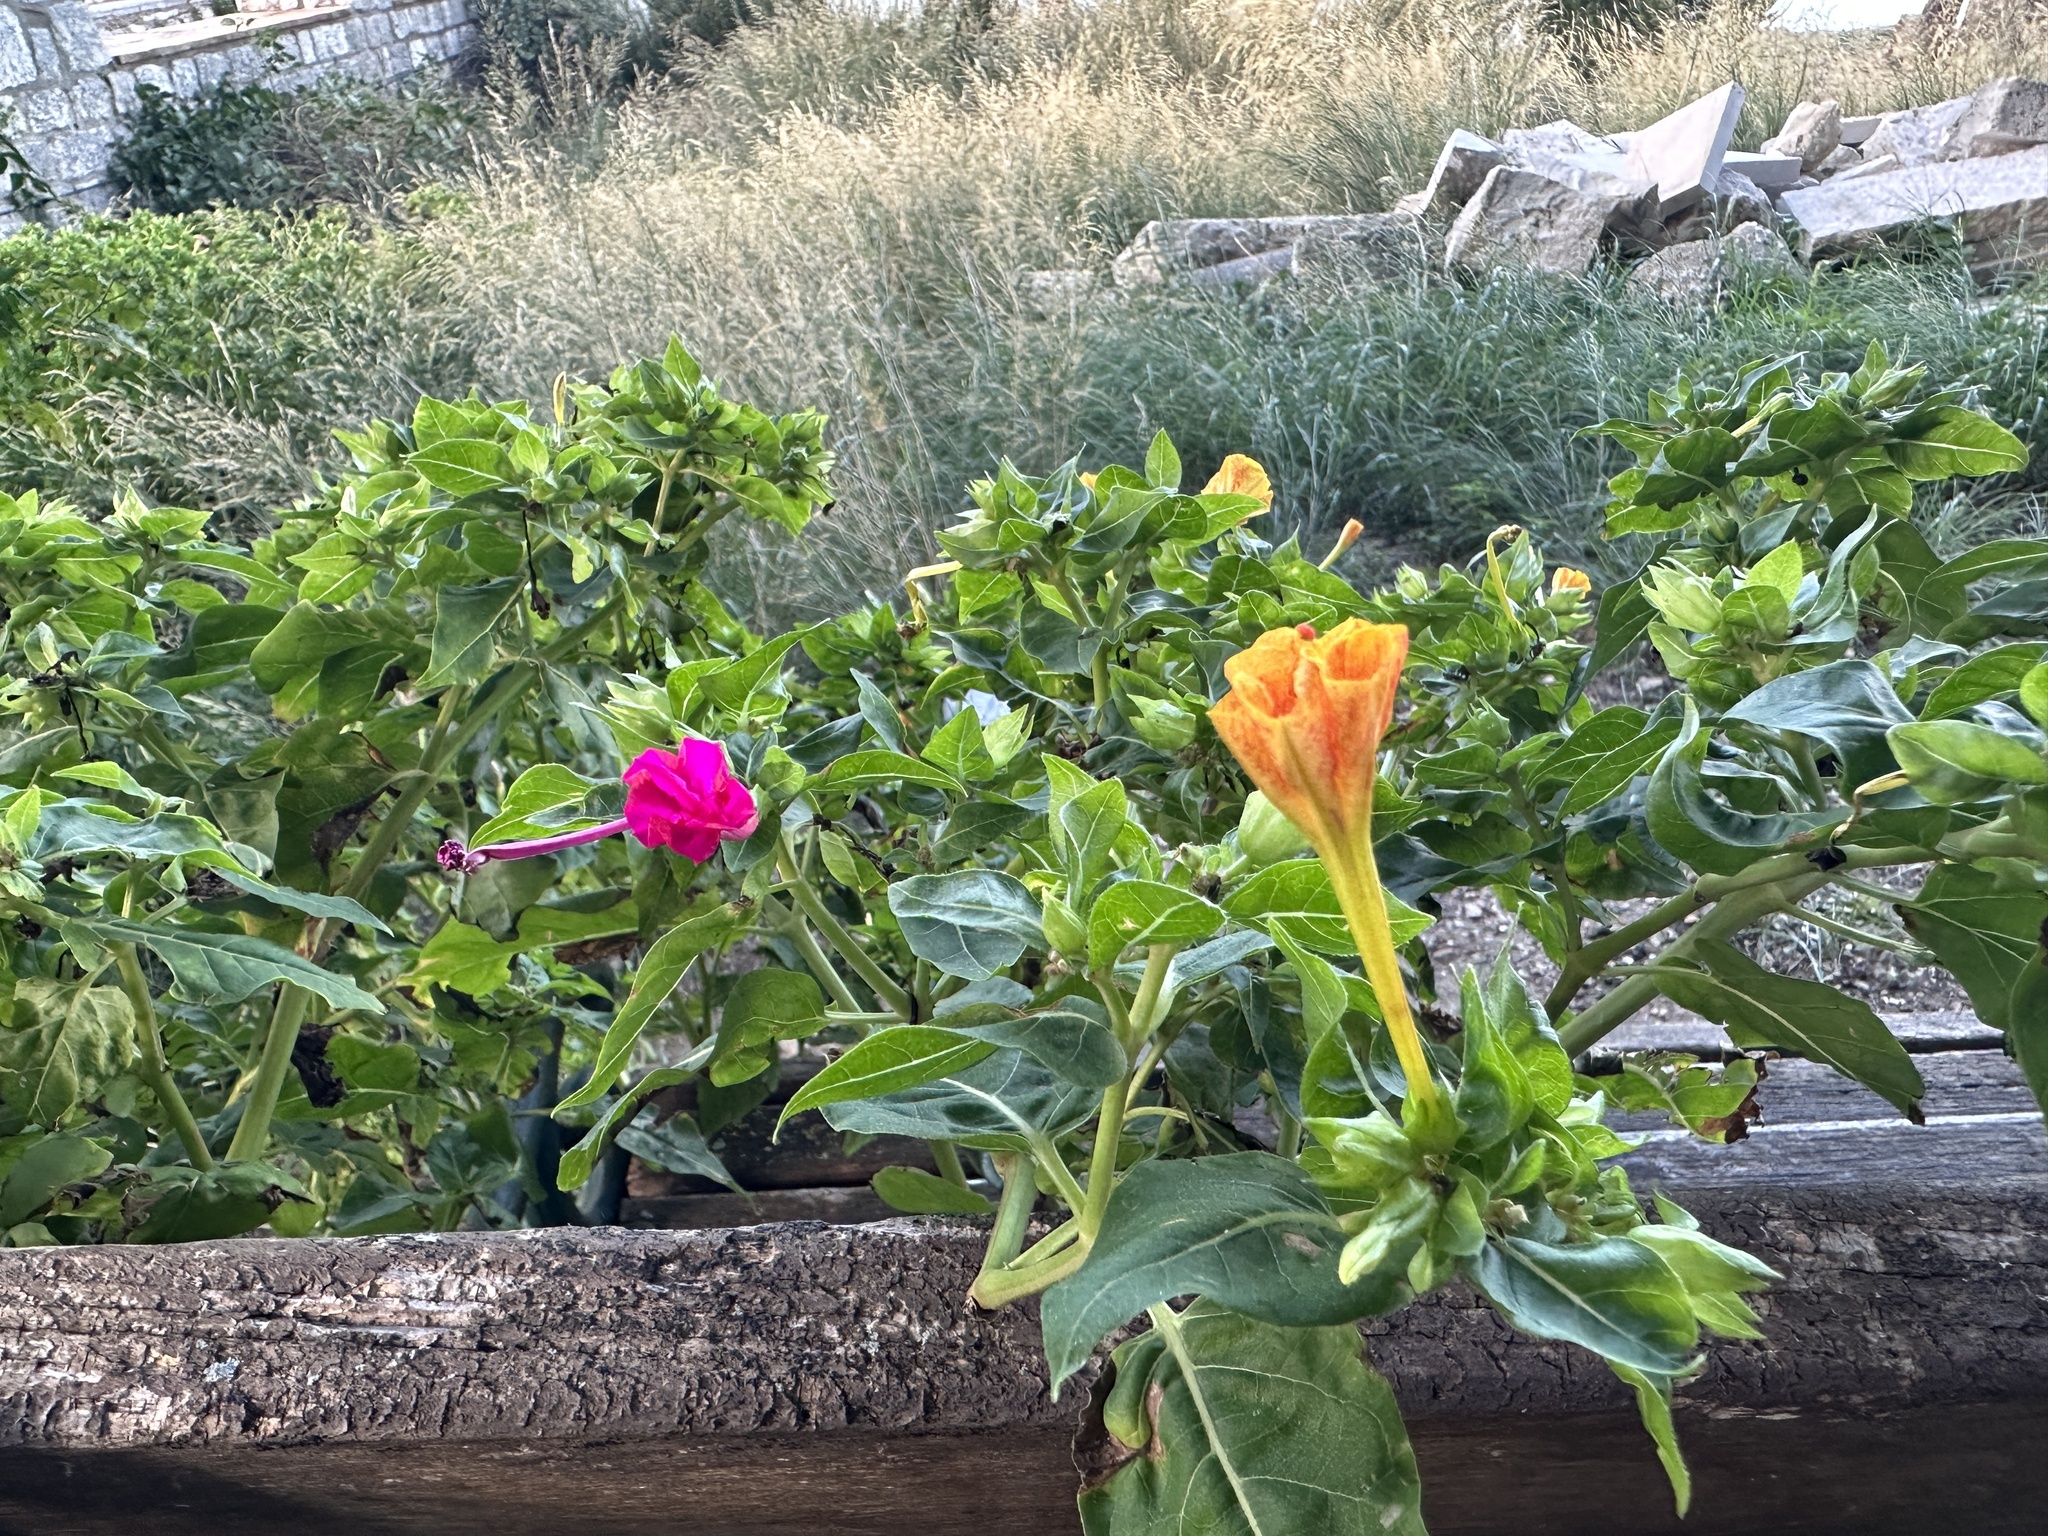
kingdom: Plantae
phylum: Tracheophyta
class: Magnoliopsida
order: Caryophyllales
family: Nyctaginaceae
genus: Mirabilis
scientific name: Mirabilis jalapa
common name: Marvel-of-peru
